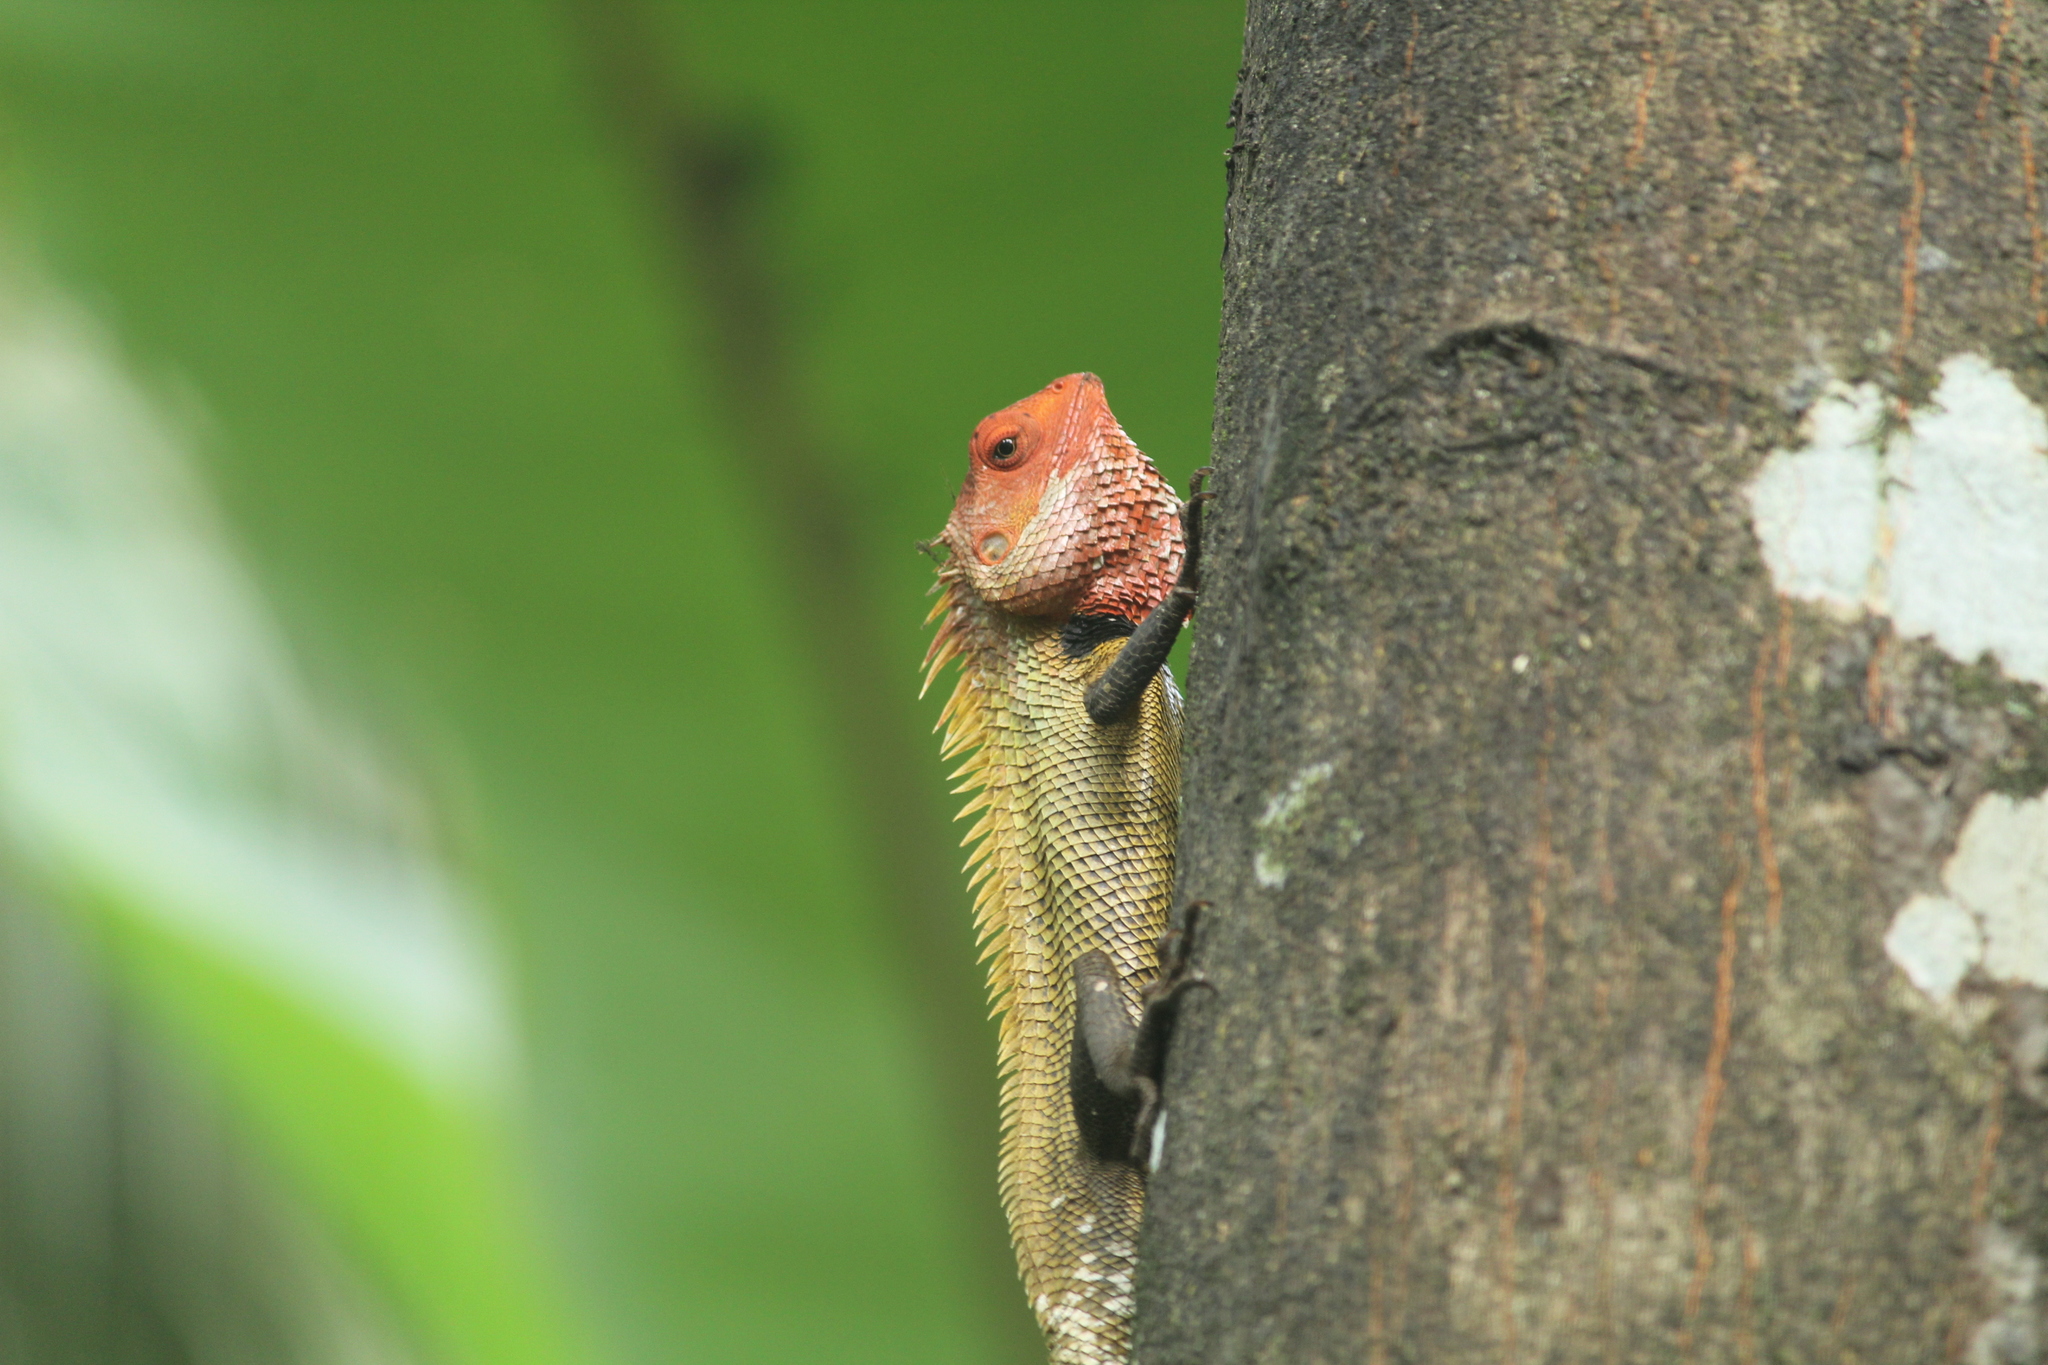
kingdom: Animalia
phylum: Chordata
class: Squamata
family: Agamidae
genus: Calotes
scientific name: Calotes versicolor
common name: Oriental garden lizard
